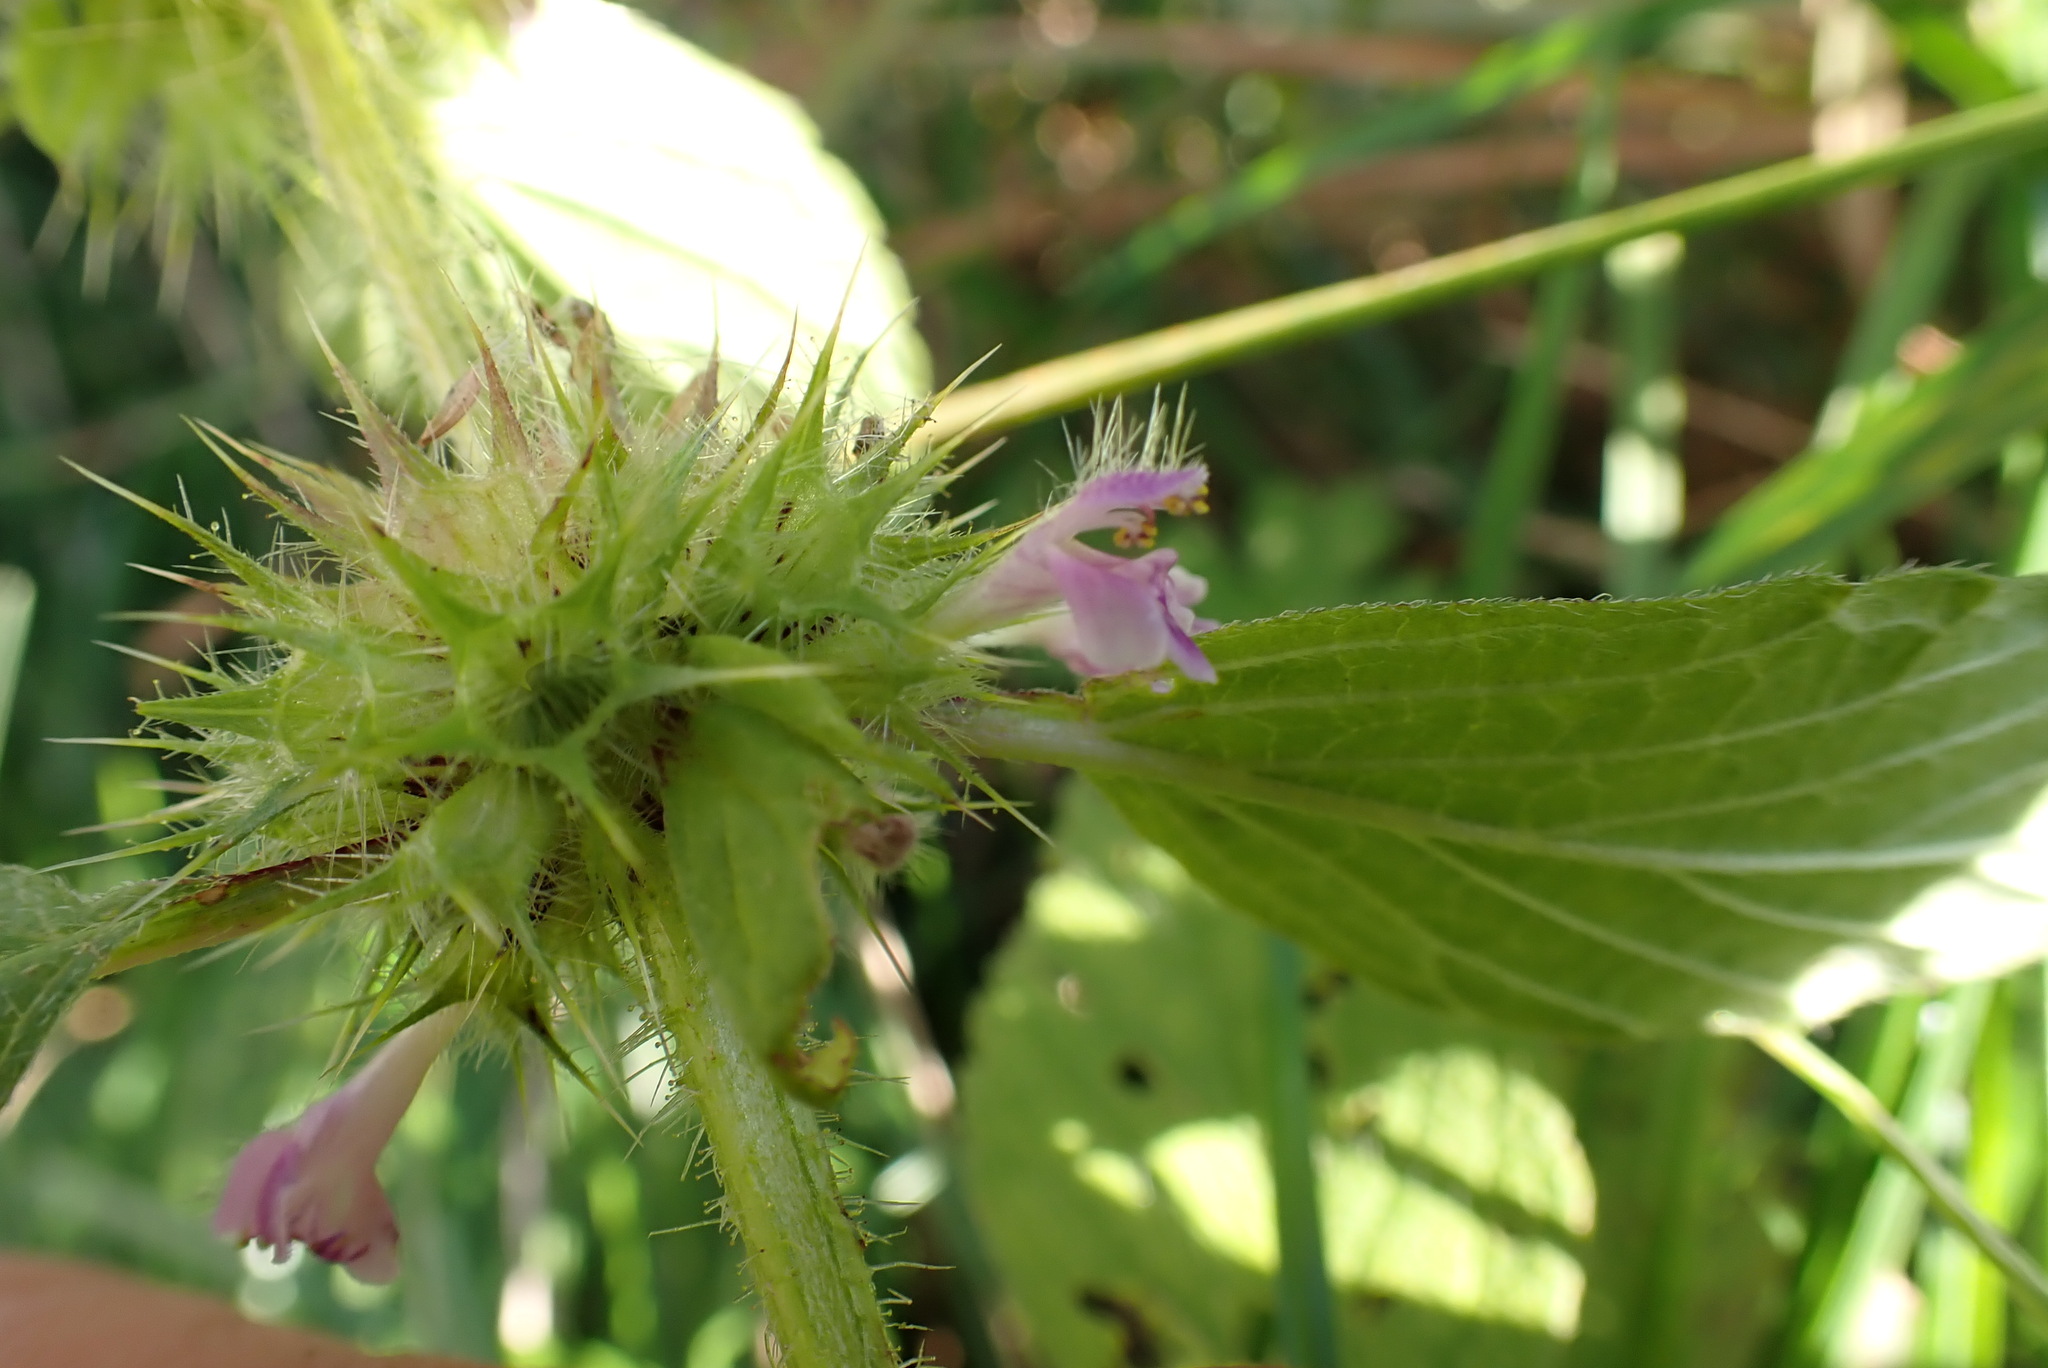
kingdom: Plantae
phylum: Tracheophyta
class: Magnoliopsida
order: Lamiales
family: Lamiaceae
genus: Galeopsis
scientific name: Galeopsis bifida
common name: Bifid hemp-nettle
